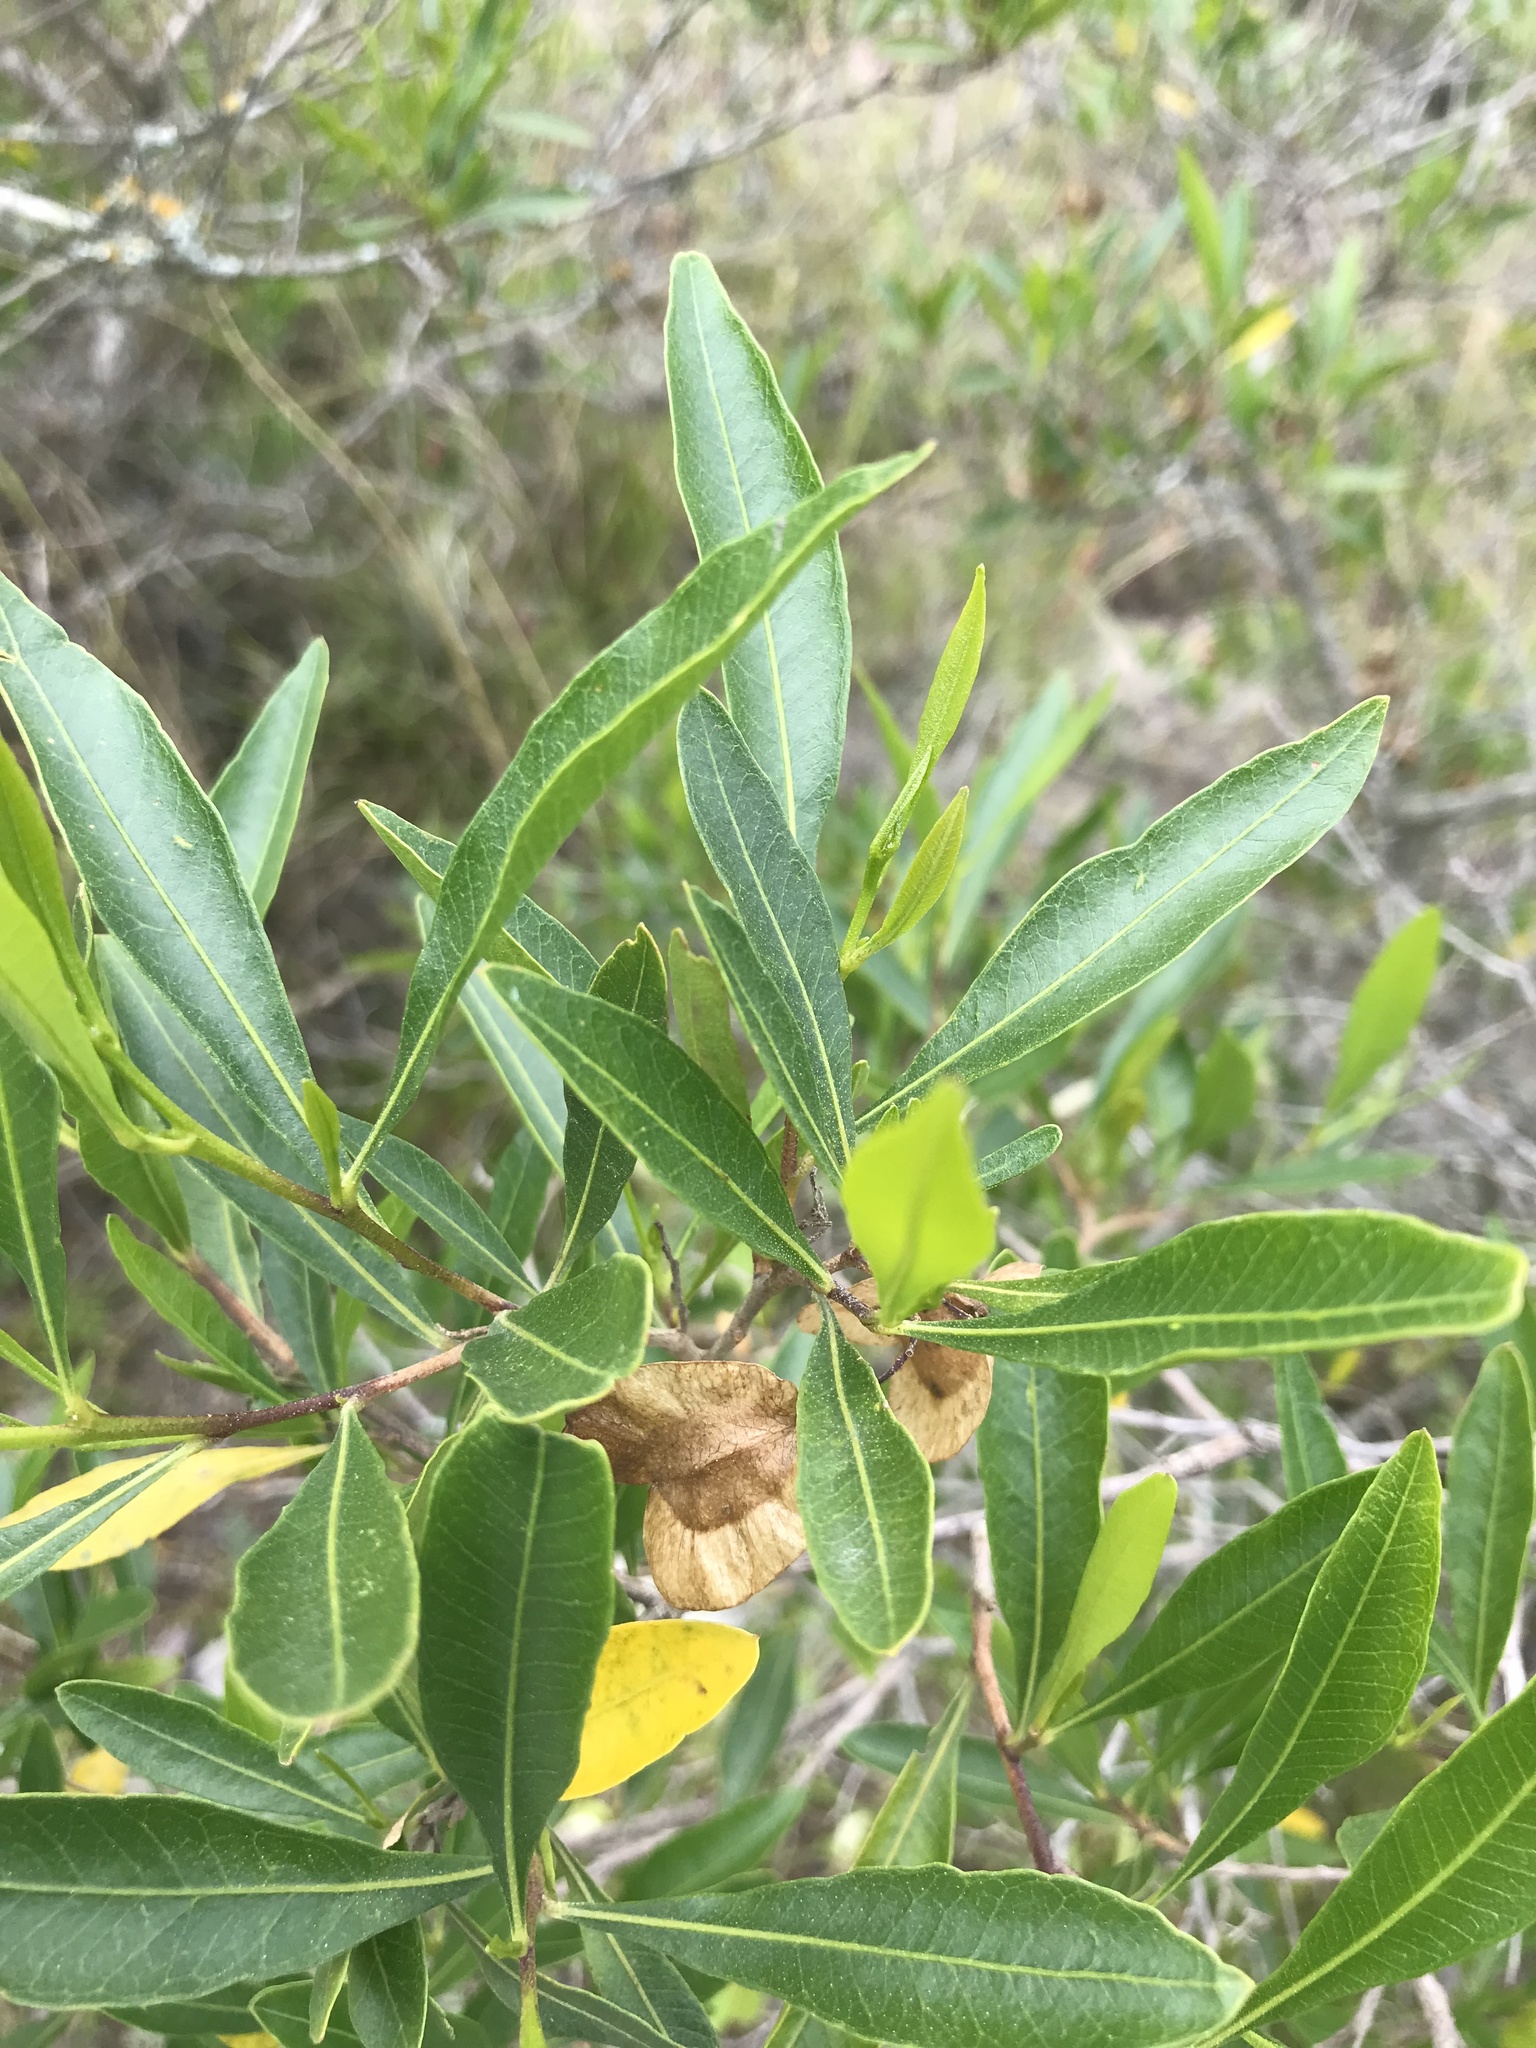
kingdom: Plantae
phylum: Tracheophyta
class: Magnoliopsida
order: Sapindales
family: Sapindaceae
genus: Dodonaea
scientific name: Dodonaea viscosa
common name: Hopbush
